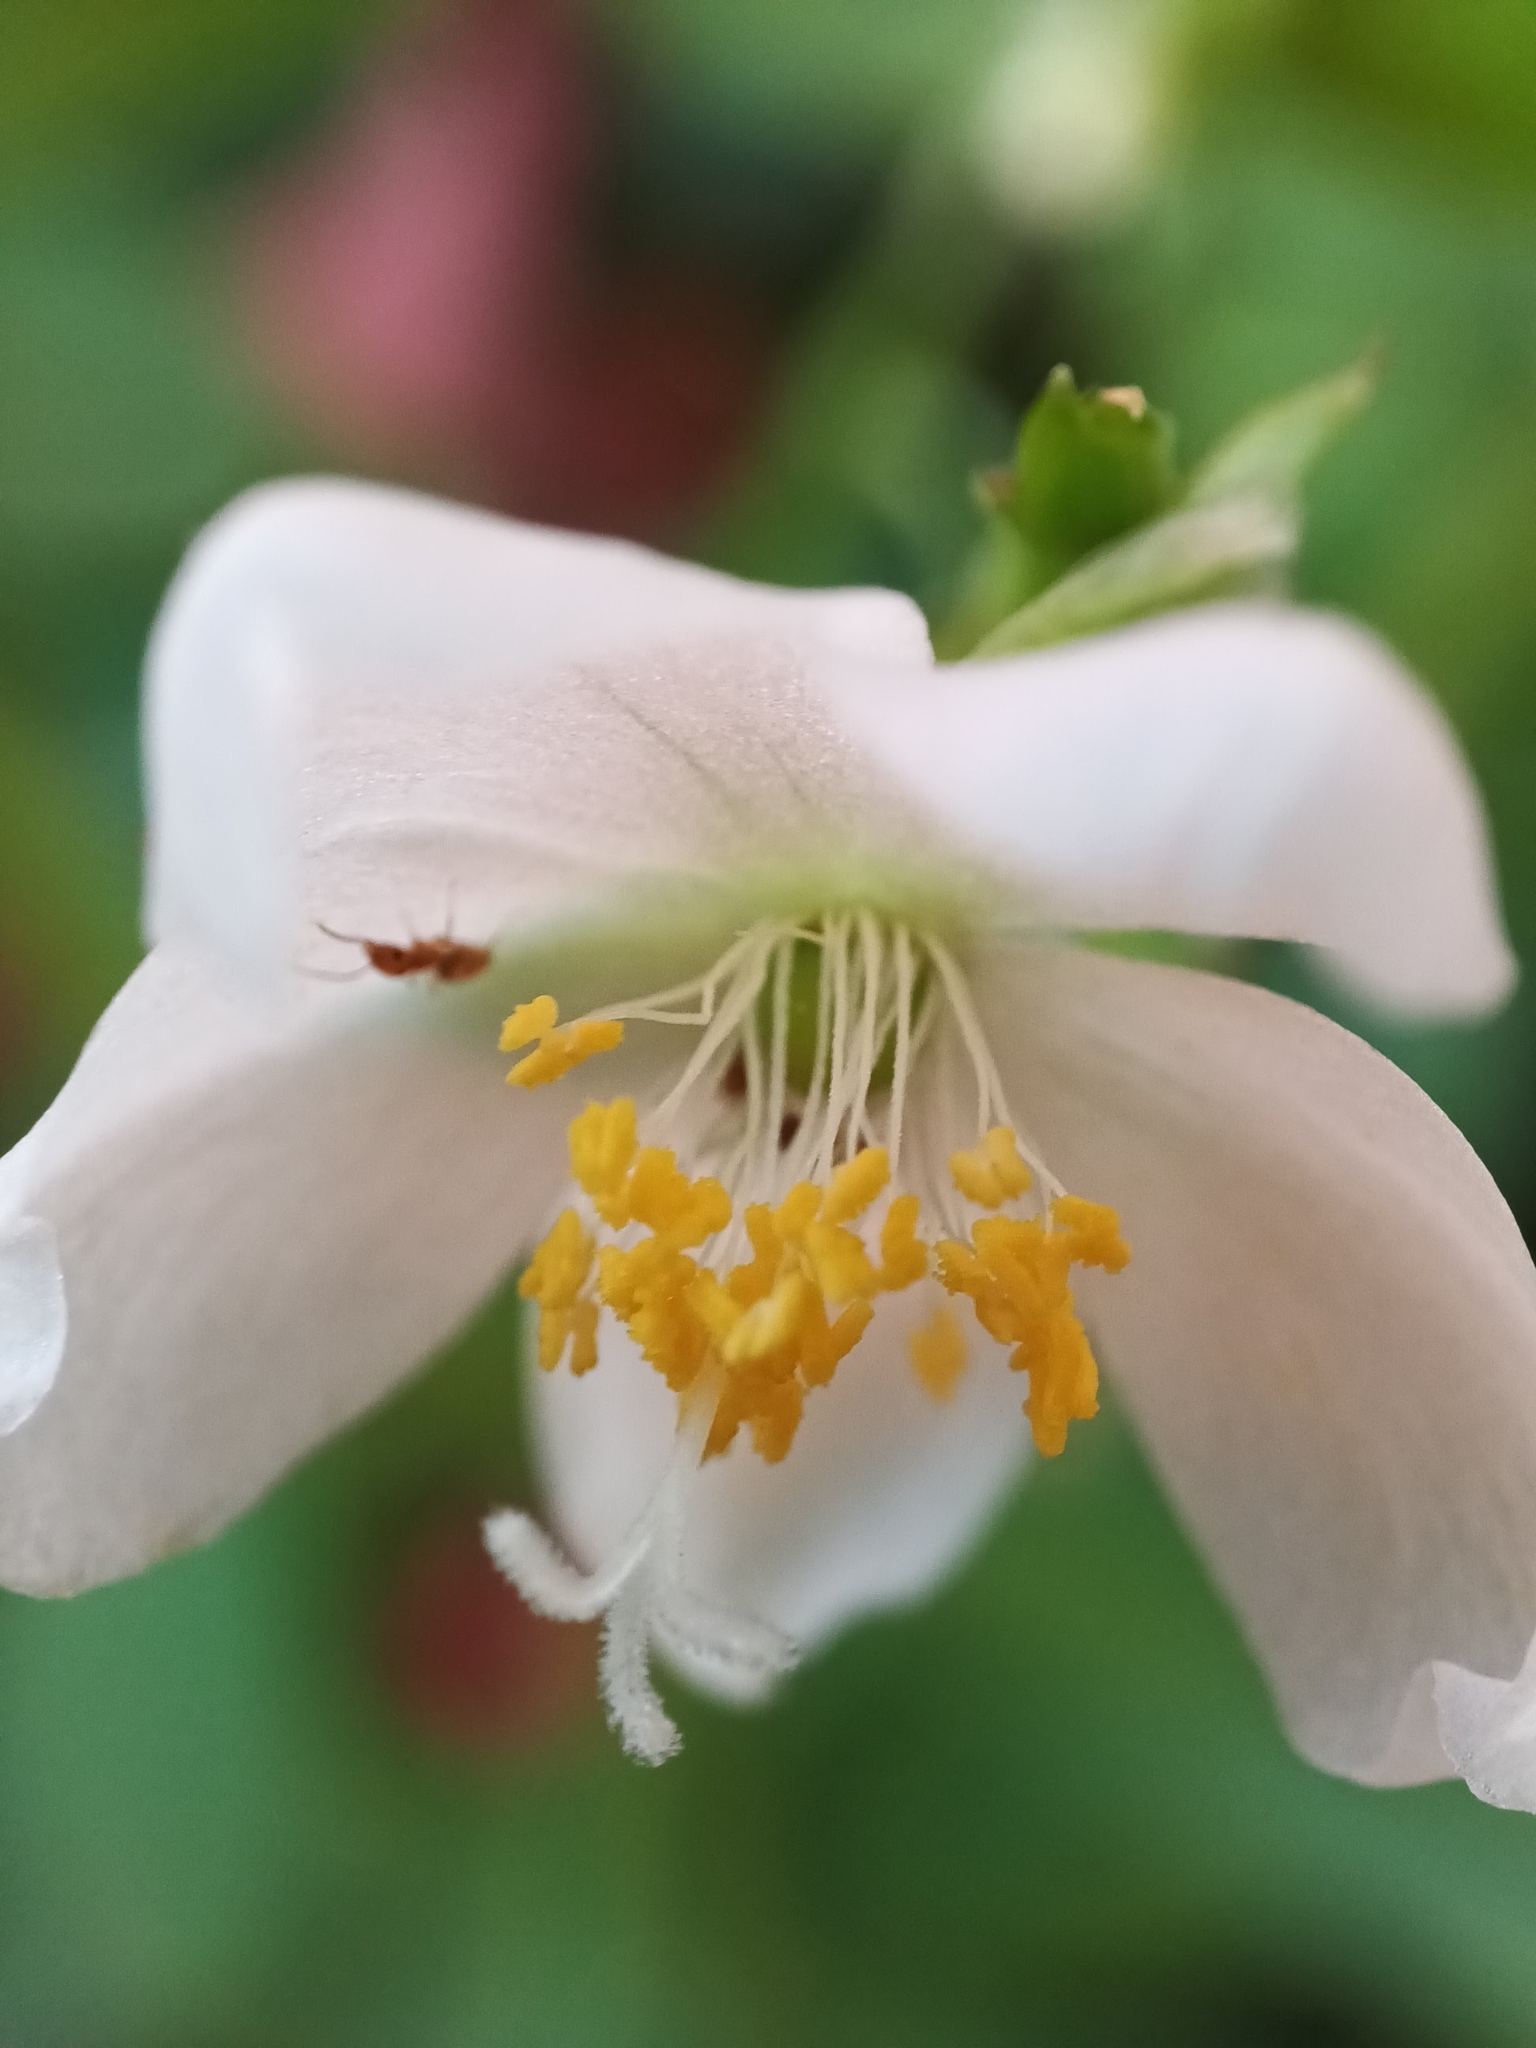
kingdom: Plantae
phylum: Tracheophyta
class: Magnoliopsida
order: Caryophyllales
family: Talinaceae
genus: Talinum
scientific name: Talinum fruticosum
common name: Verdolaga-francesa
